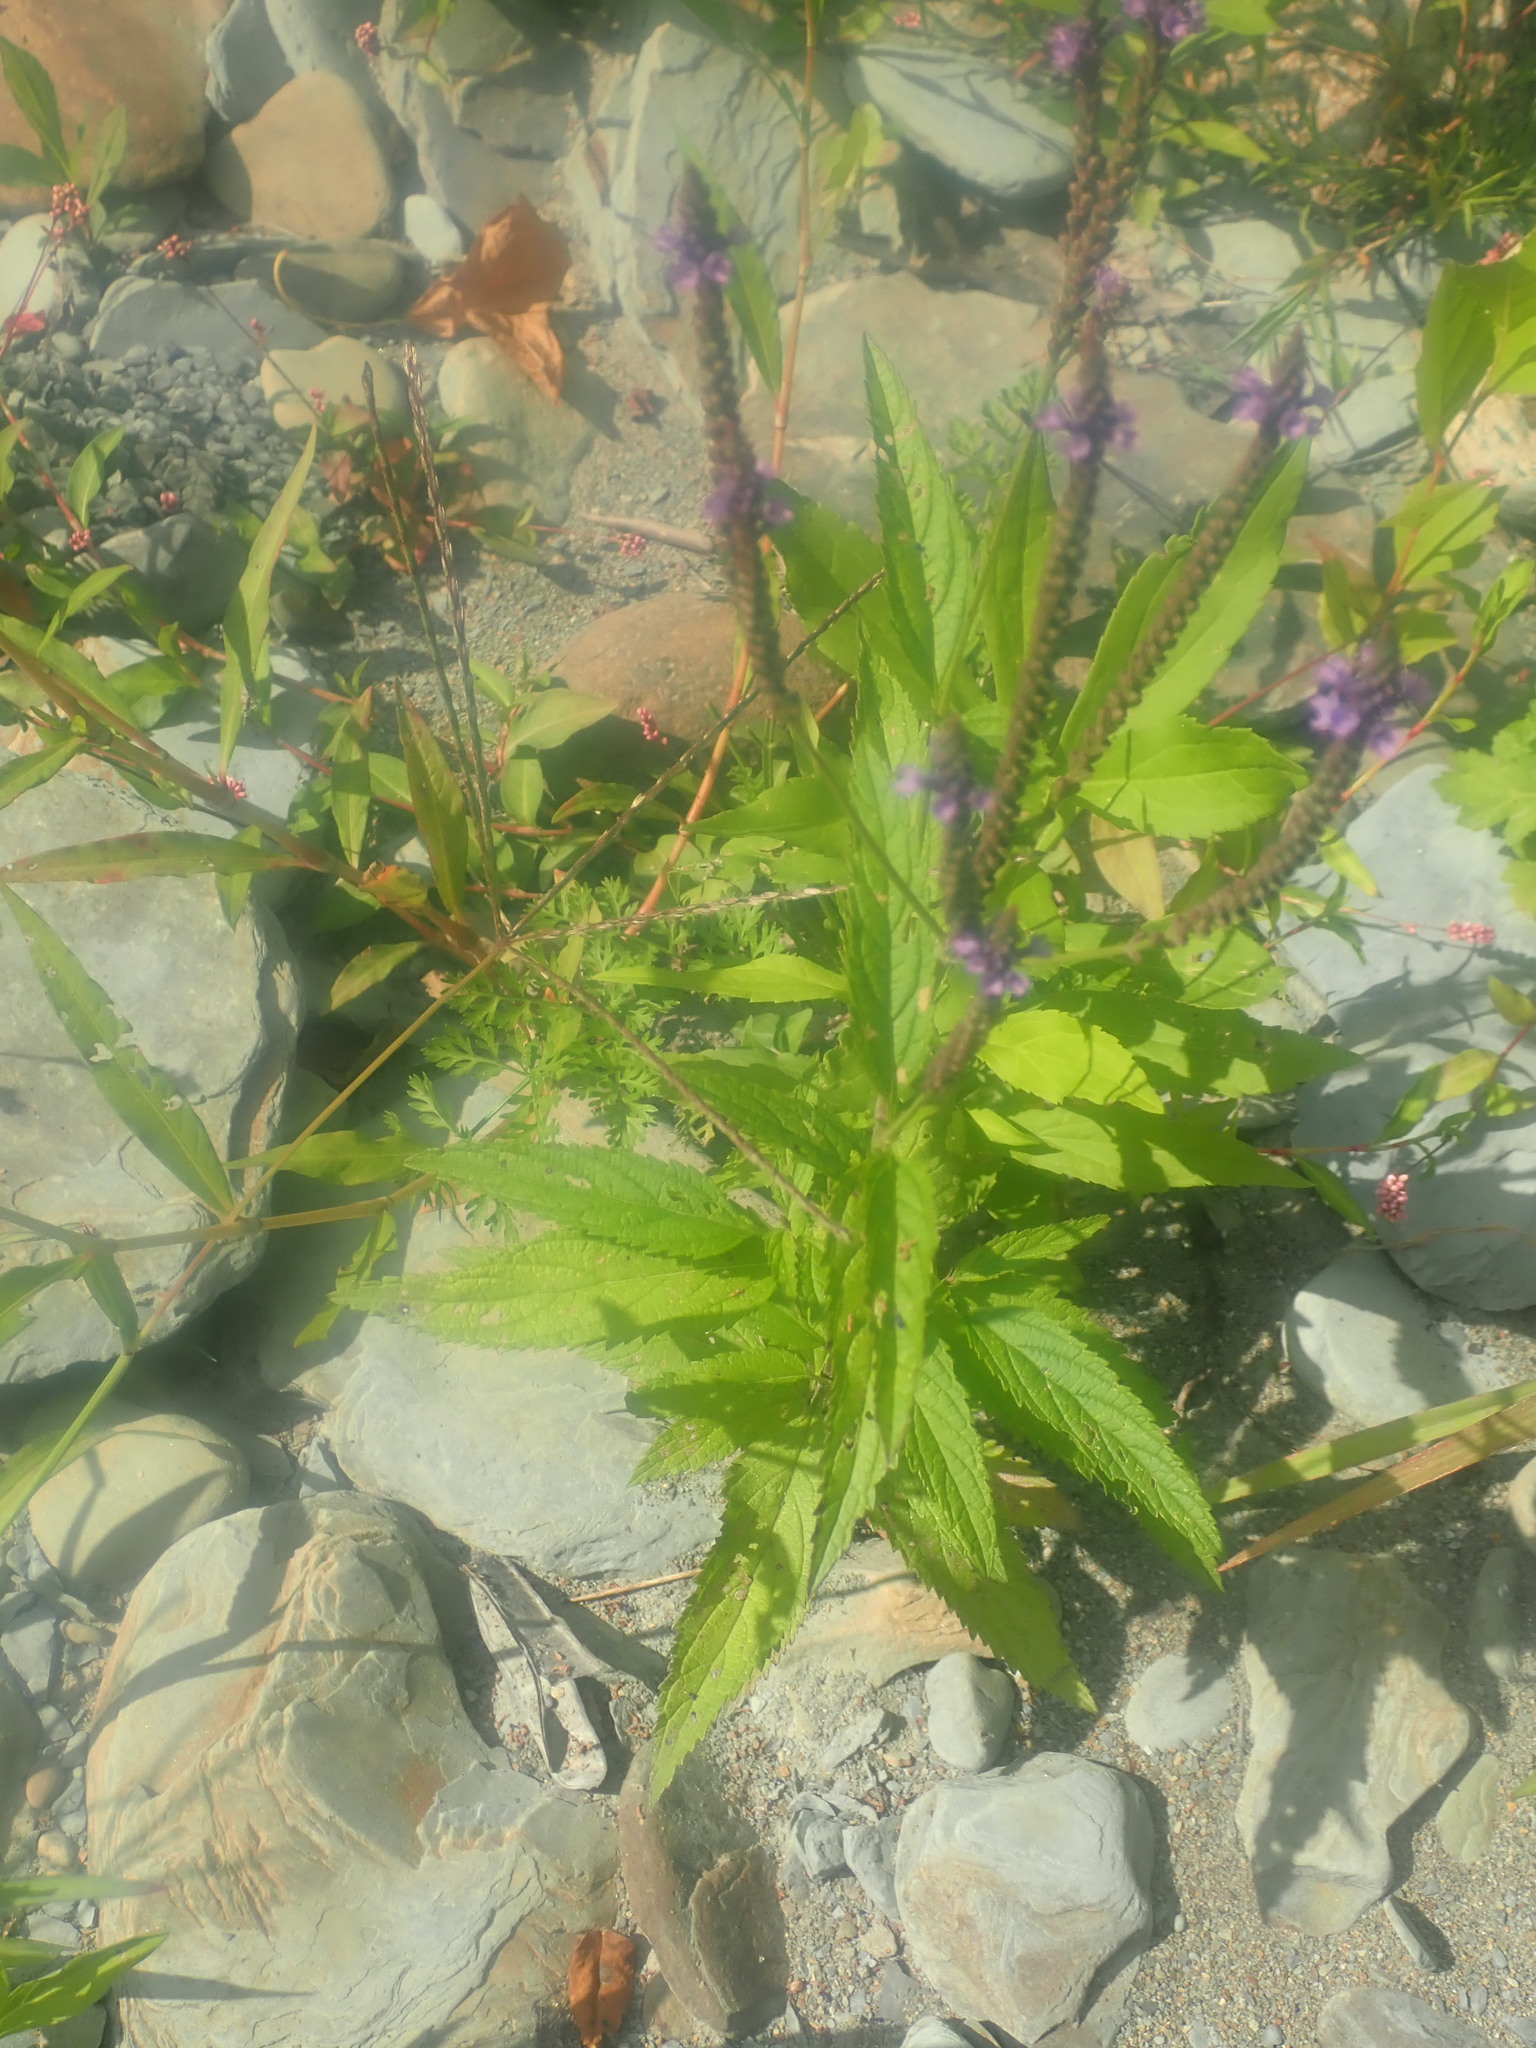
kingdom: Plantae
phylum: Tracheophyta
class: Magnoliopsida
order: Lamiales
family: Verbenaceae
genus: Verbena
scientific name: Verbena hastata
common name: American blue vervain
